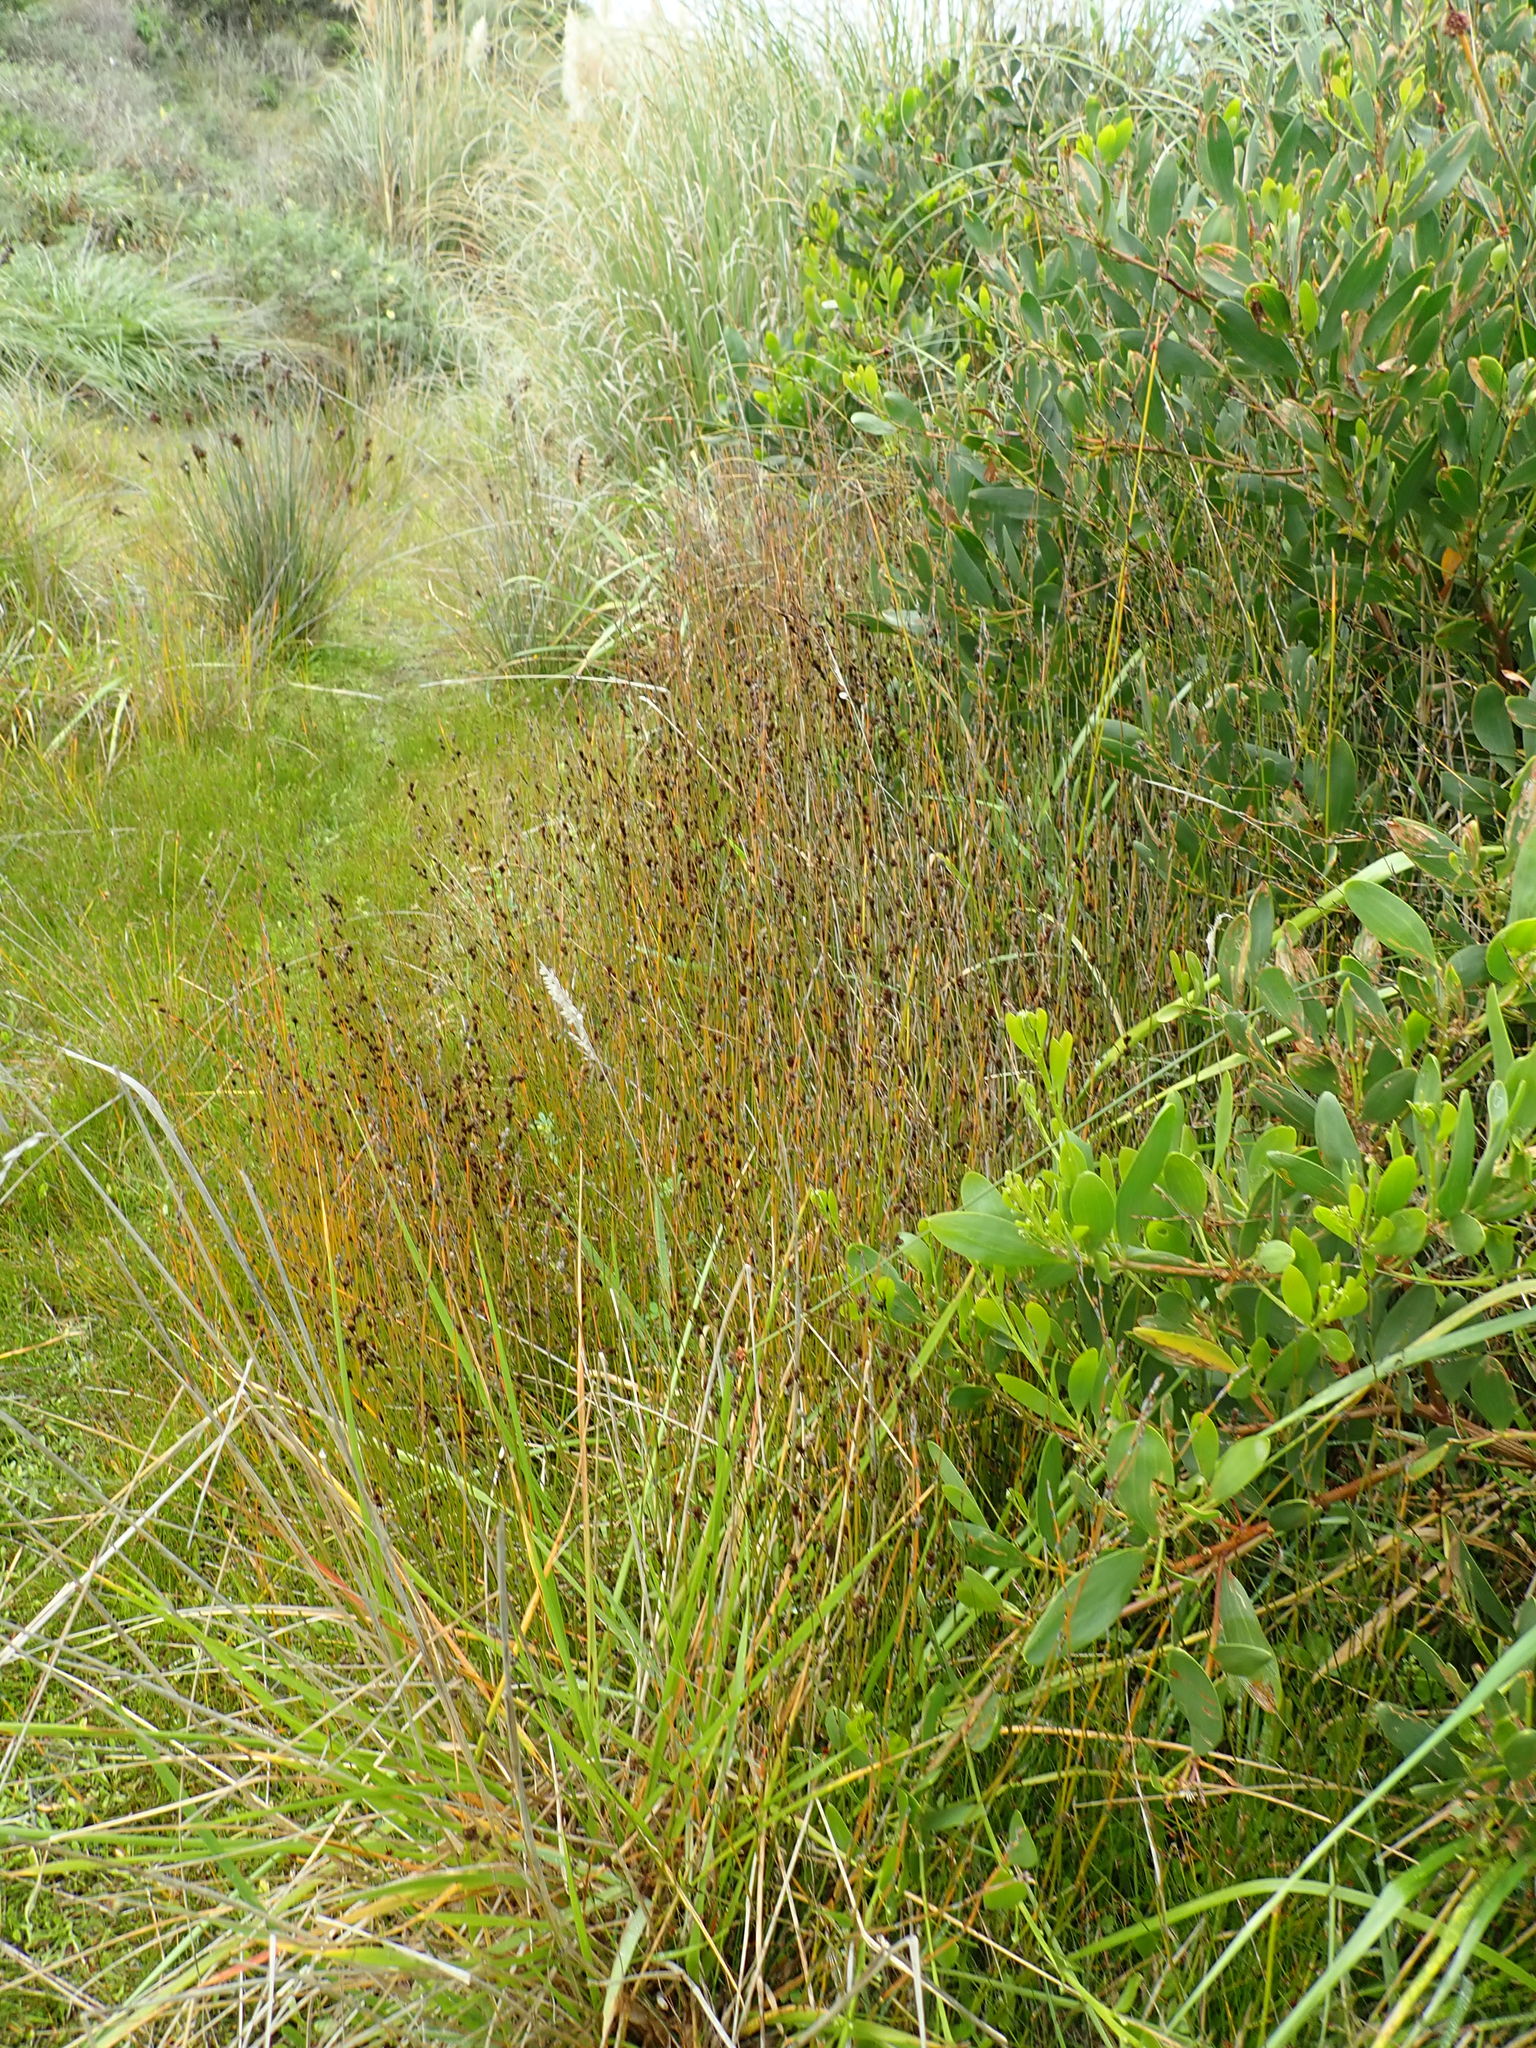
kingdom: Plantae
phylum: Tracheophyta
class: Liliopsida
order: Poales
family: Restionaceae
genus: Apodasmia
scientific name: Apodasmia similis
